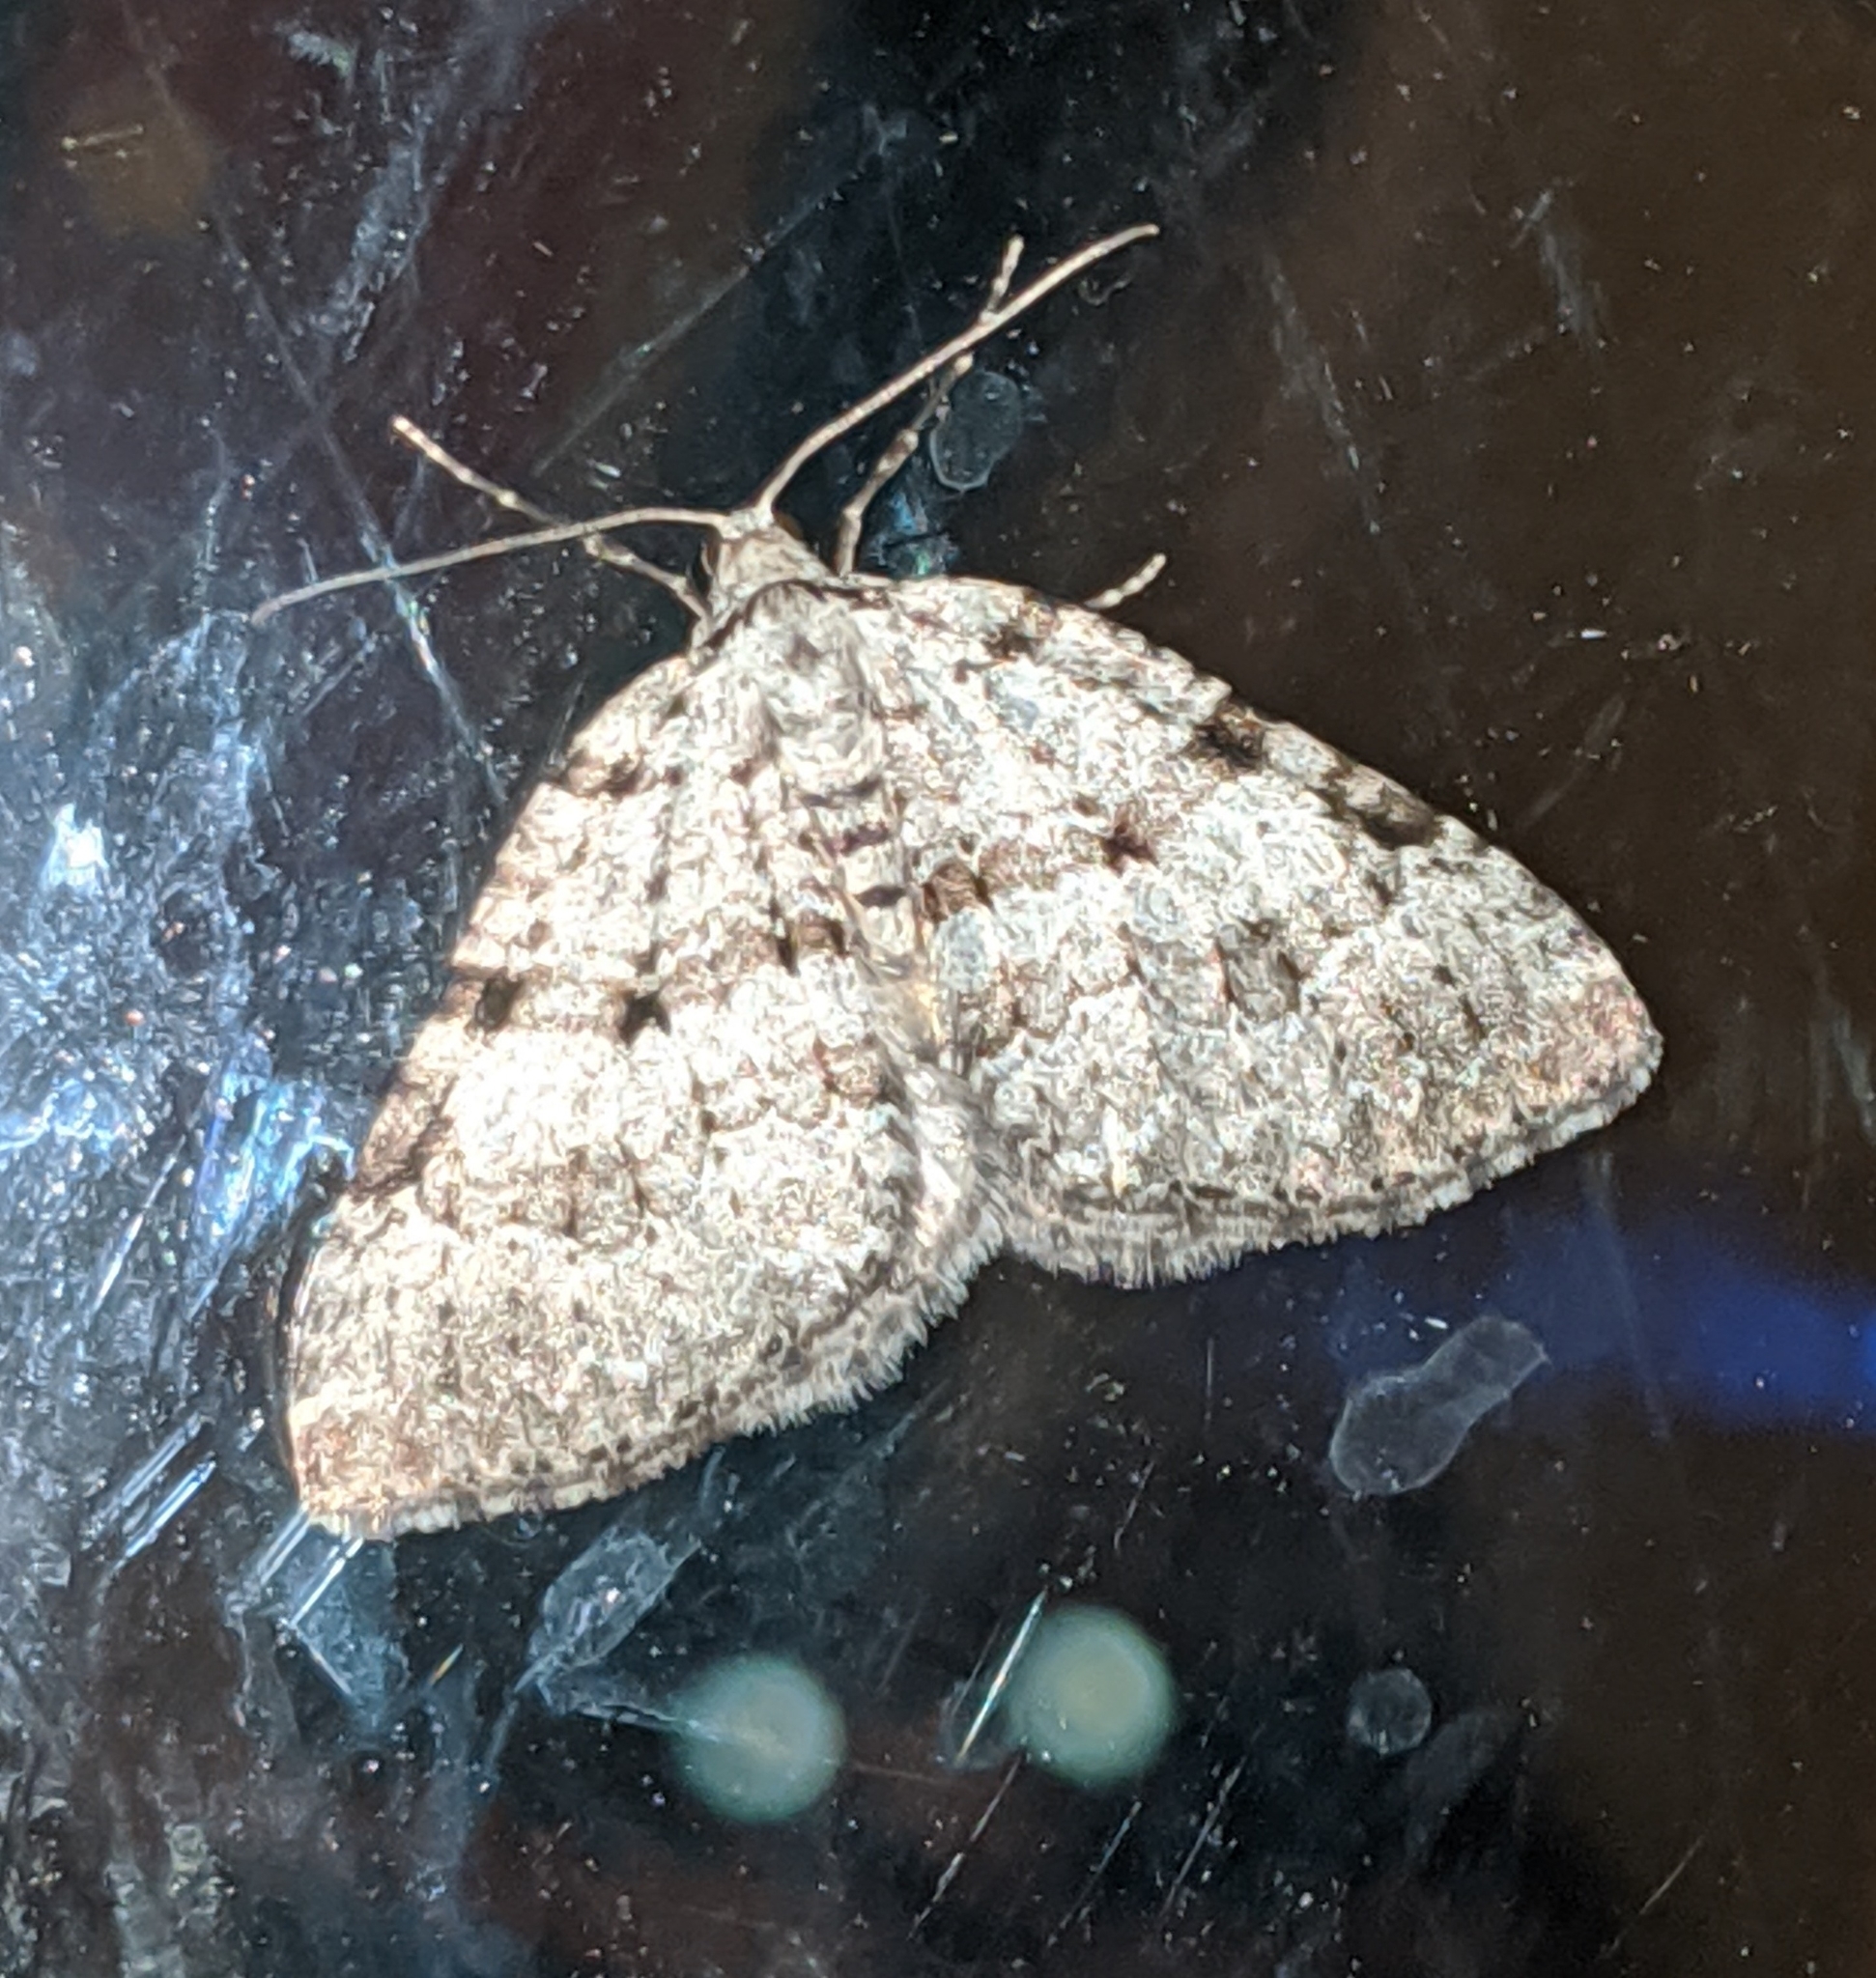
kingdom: Animalia
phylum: Arthropoda
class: Insecta
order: Lepidoptera
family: Geometridae
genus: Perizoma
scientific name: Perizoma curvilinea
